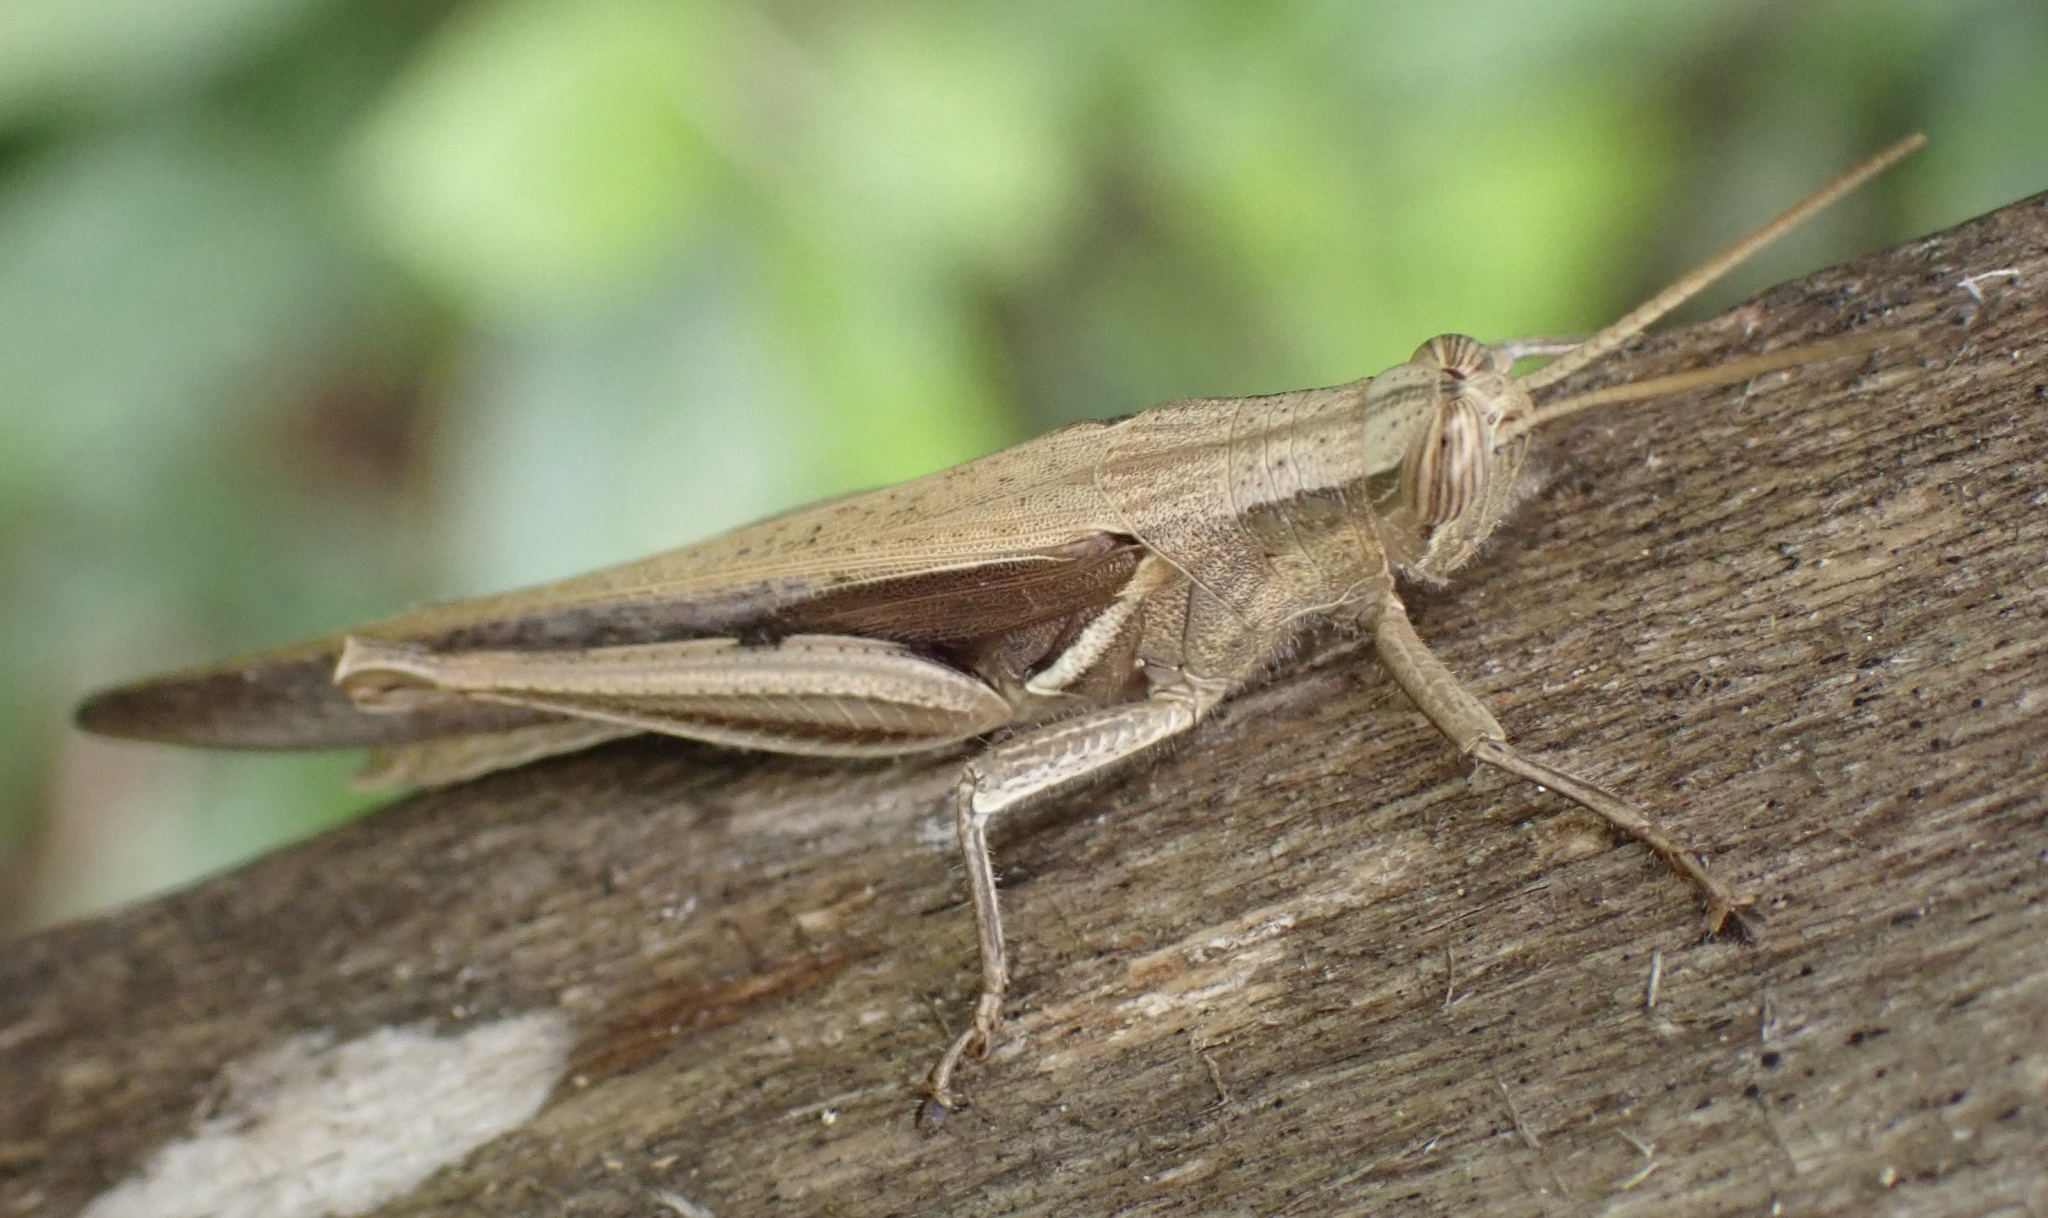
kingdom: Animalia
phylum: Arthropoda
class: Insecta
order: Orthoptera
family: Acrididae
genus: Stenocatantops
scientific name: Stenocatantops splendens
